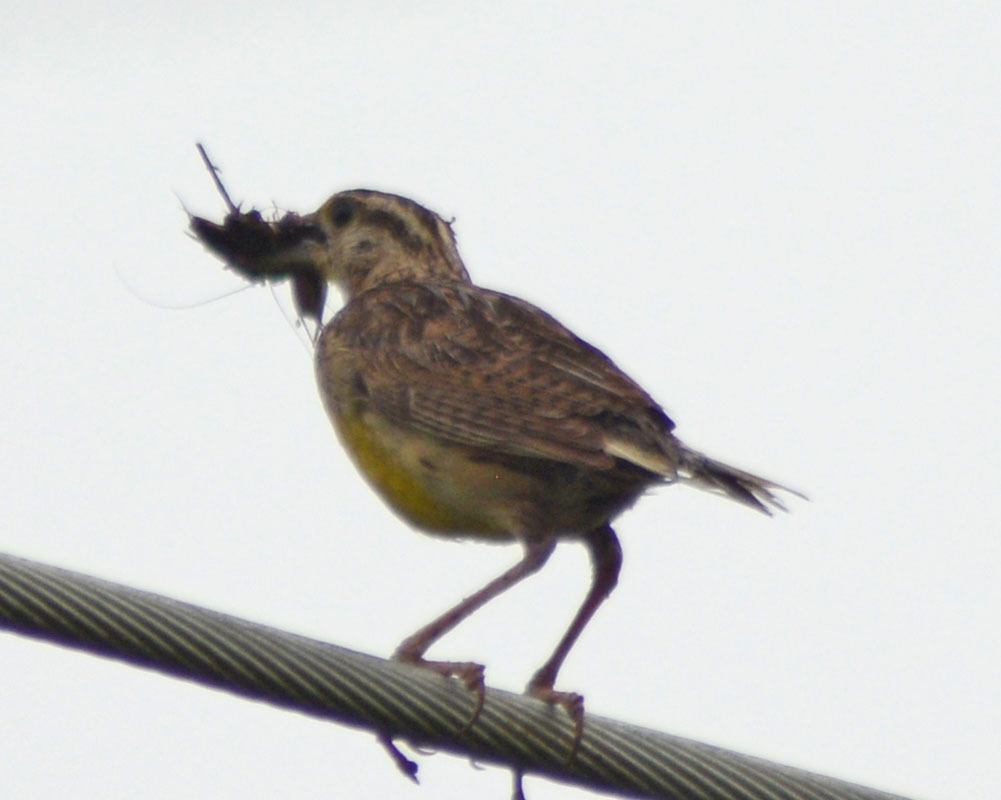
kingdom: Animalia
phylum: Chordata
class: Aves
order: Passeriformes
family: Icteridae
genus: Sturnella
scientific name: Sturnella magna
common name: Eastern meadowlark
